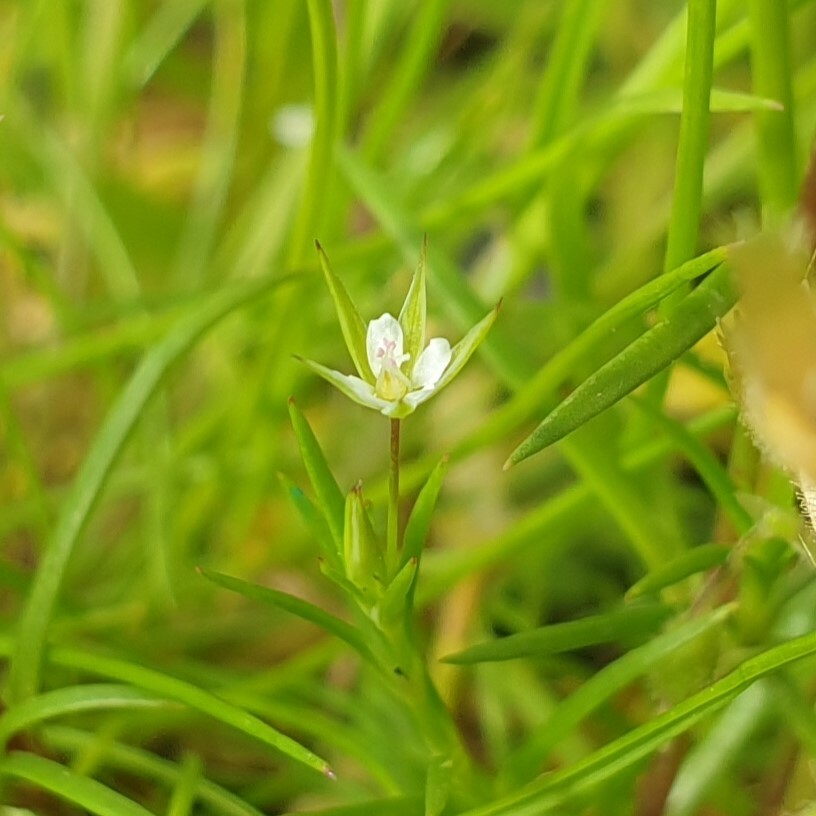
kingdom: Plantae
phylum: Tracheophyta
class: Magnoliopsida
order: Caryophyllales
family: Caryophyllaceae
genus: Sabulina
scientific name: Sabulina tenuifolia
